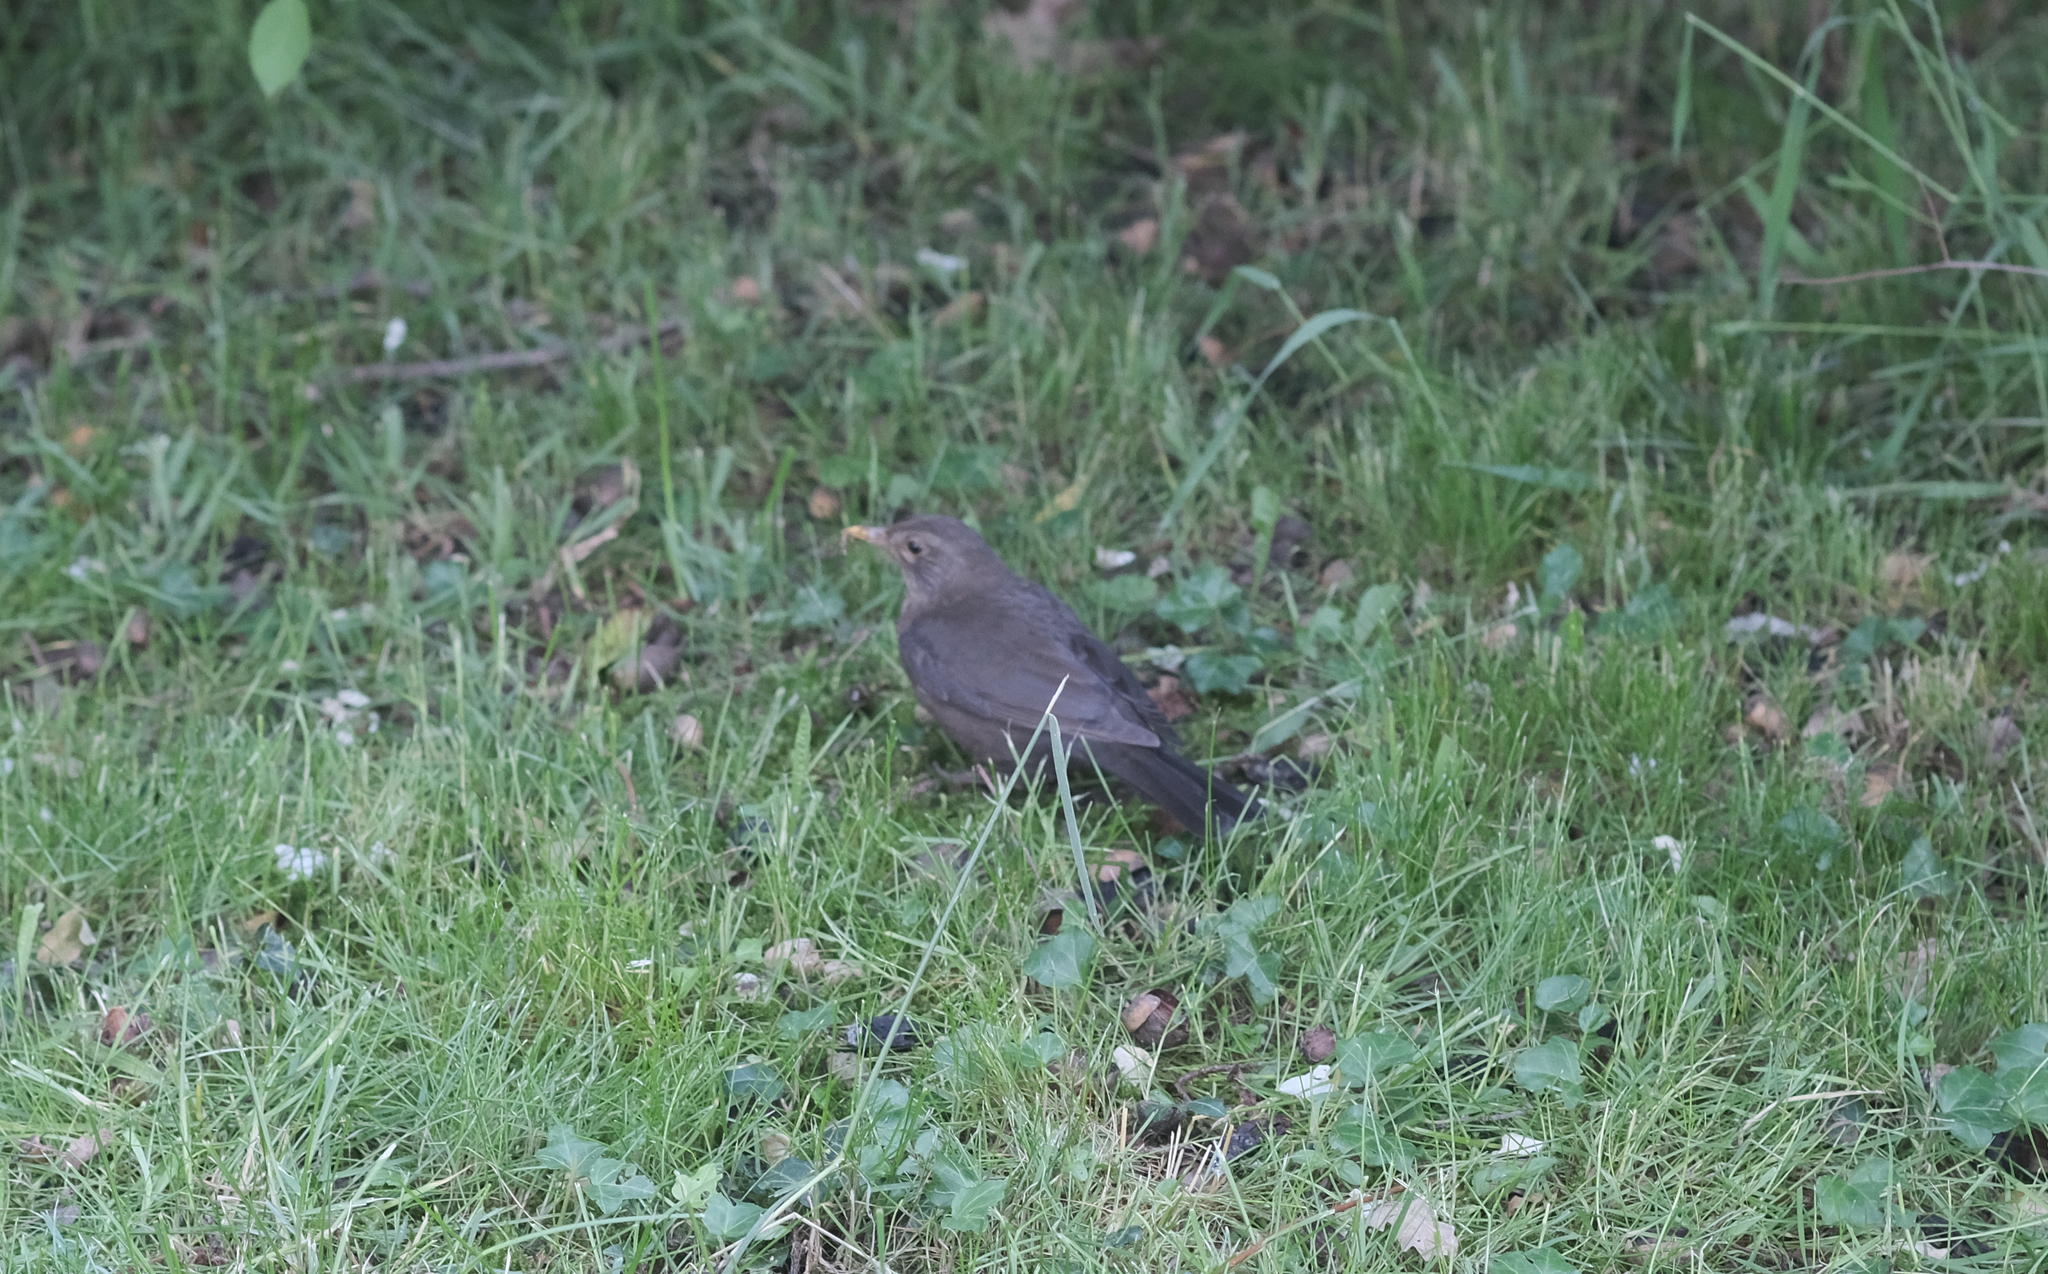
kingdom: Animalia
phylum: Chordata
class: Aves
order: Passeriformes
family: Turdidae
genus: Turdus
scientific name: Turdus merula
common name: Common blackbird
